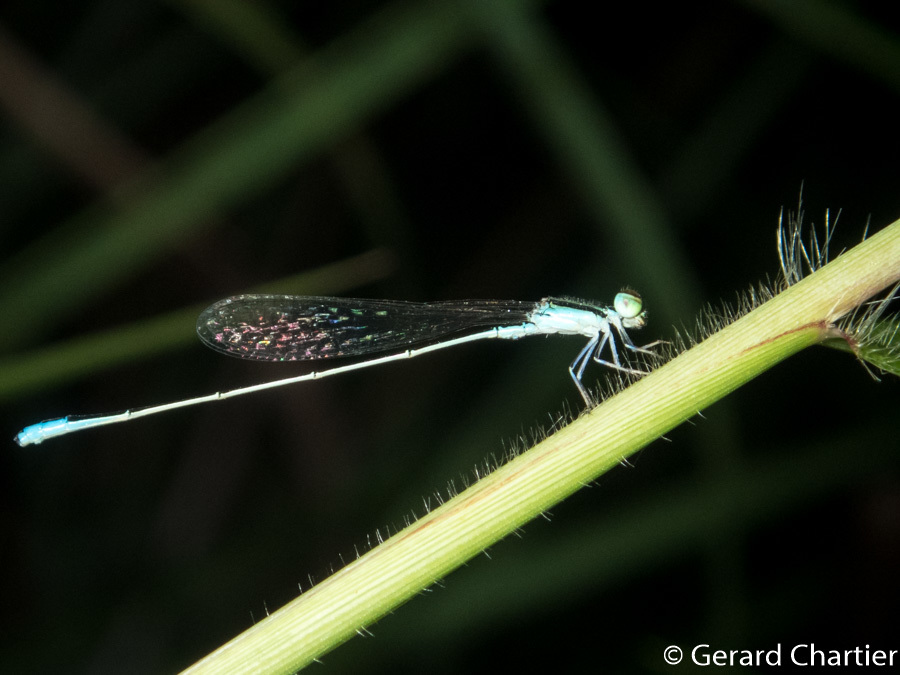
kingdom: Animalia
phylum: Arthropoda
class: Insecta
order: Odonata
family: Coenagrionidae
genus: Aciagrion
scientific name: Aciagrion borneense
